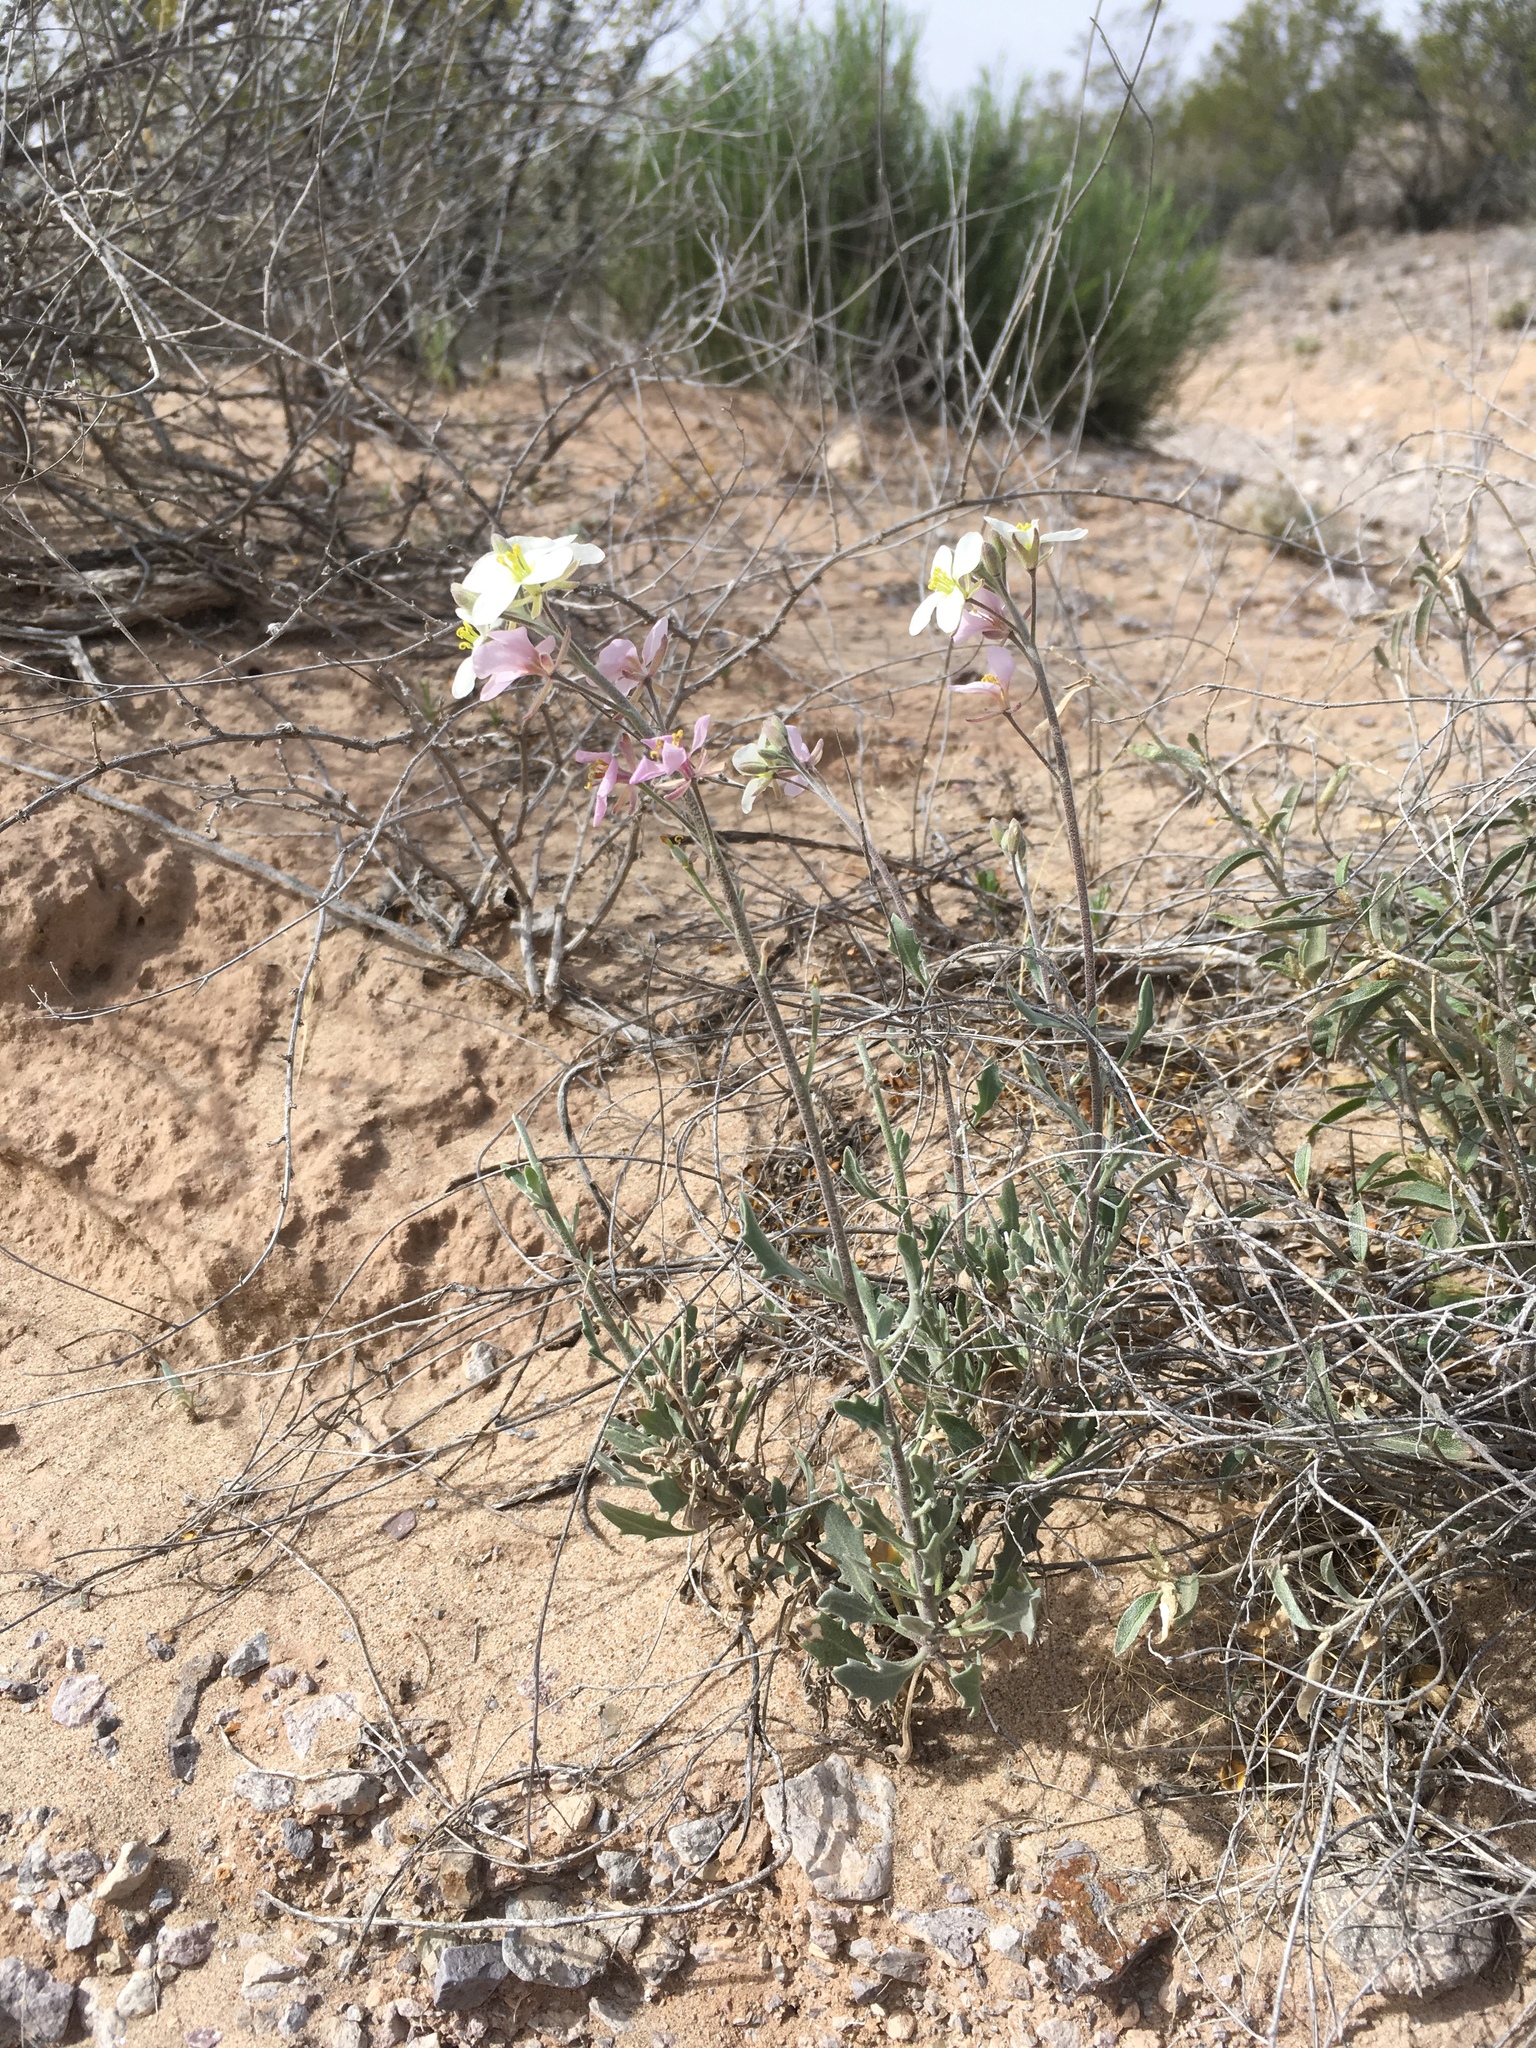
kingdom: Plantae
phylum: Tracheophyta
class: Magnoliopsida
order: Brassicales
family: Brassicaceae
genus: Nerisyrenia
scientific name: Nerisyrenia camporum
